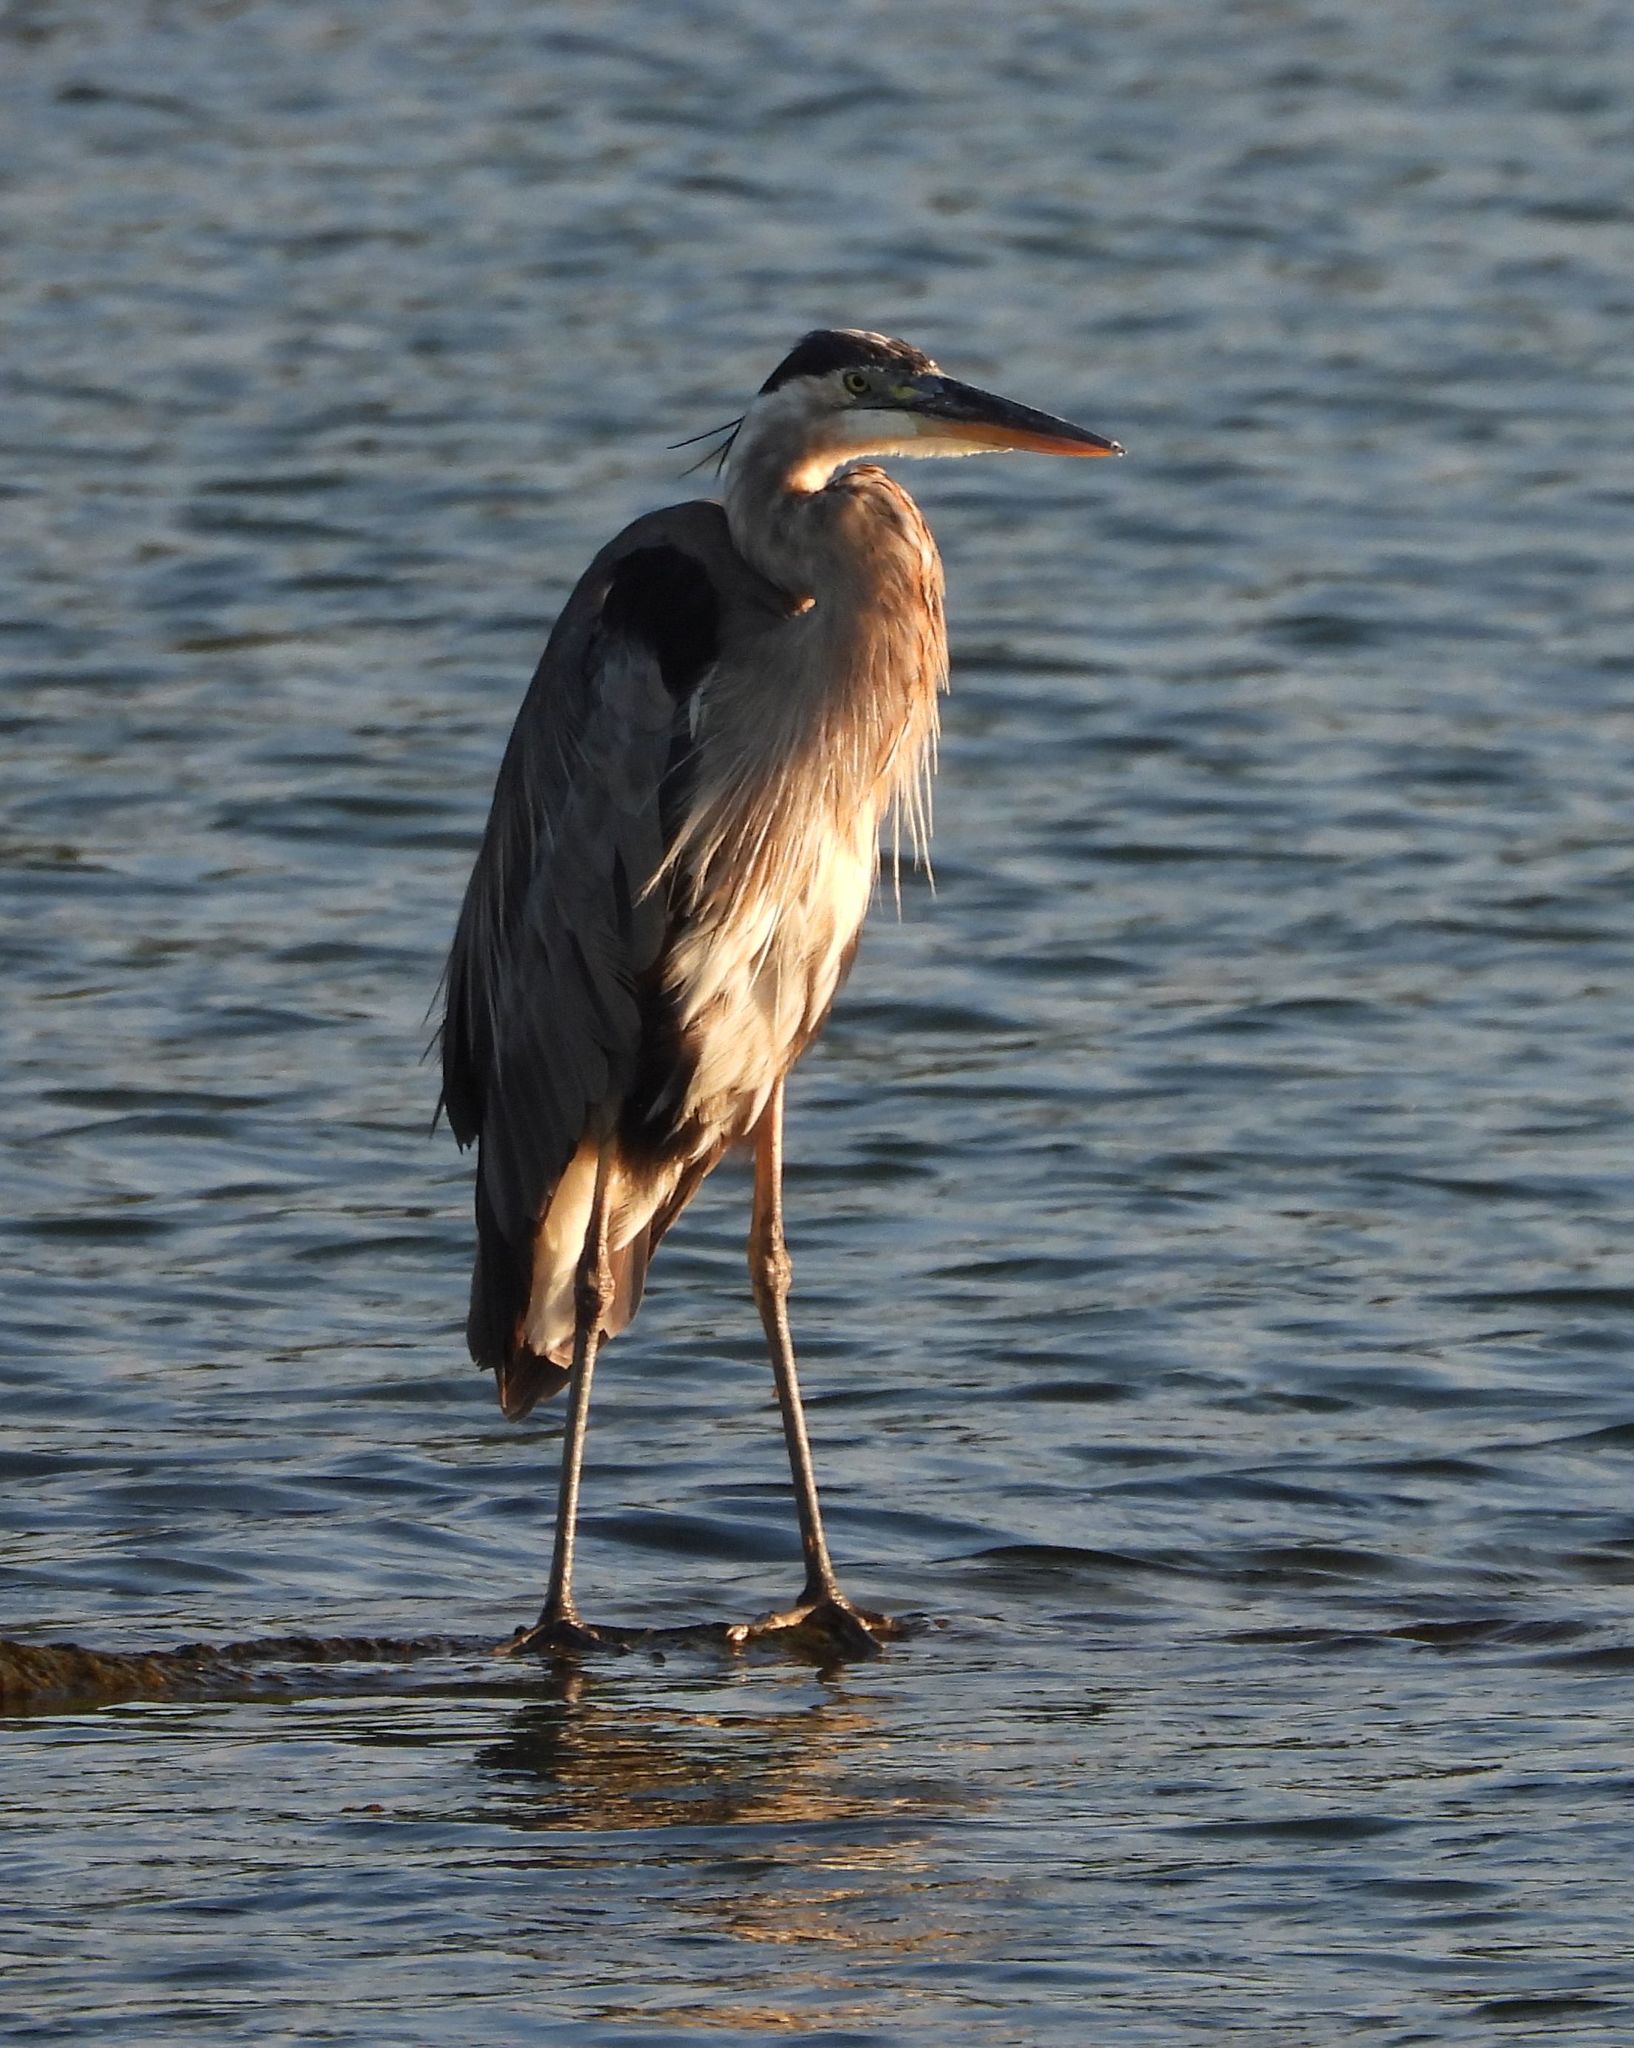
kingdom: Animalia
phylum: Chordata
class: Aves
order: Pelecaniformes
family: Ardeidae
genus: Ardea
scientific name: Ardea herodias
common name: Great blue heron
